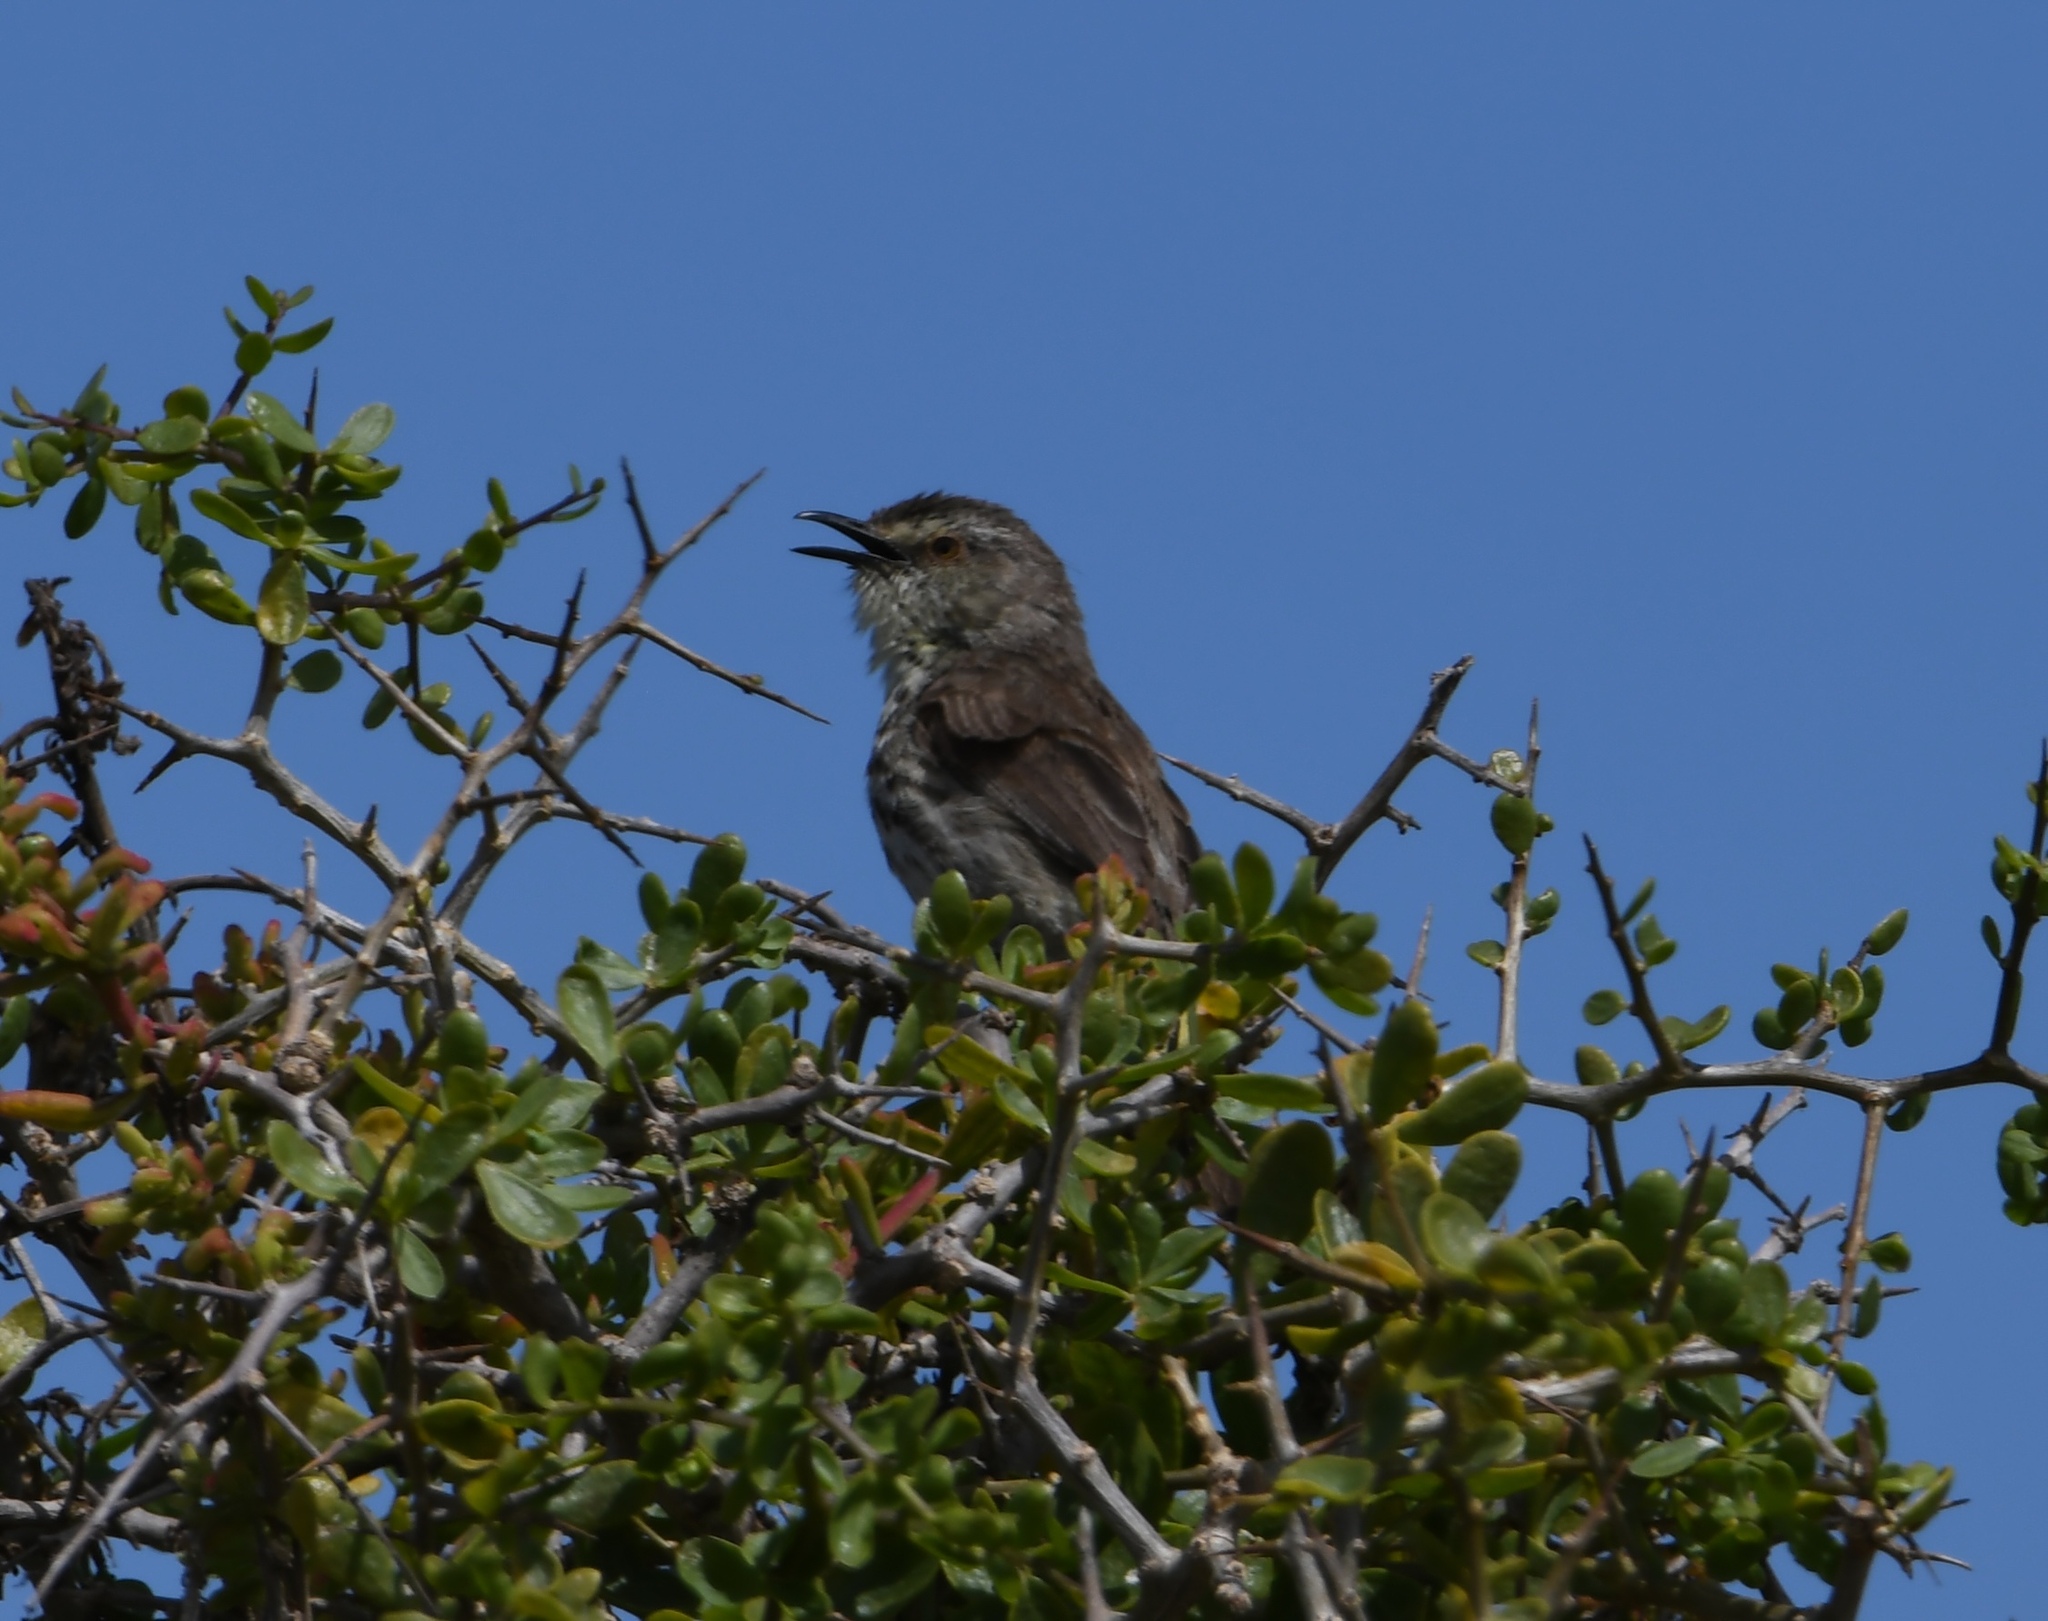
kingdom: Animalia
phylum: Chordata
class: Aves
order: Passeriformes
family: Cisticolidae
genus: Prinia
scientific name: Prinia maculosa
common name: Karoo prinia
